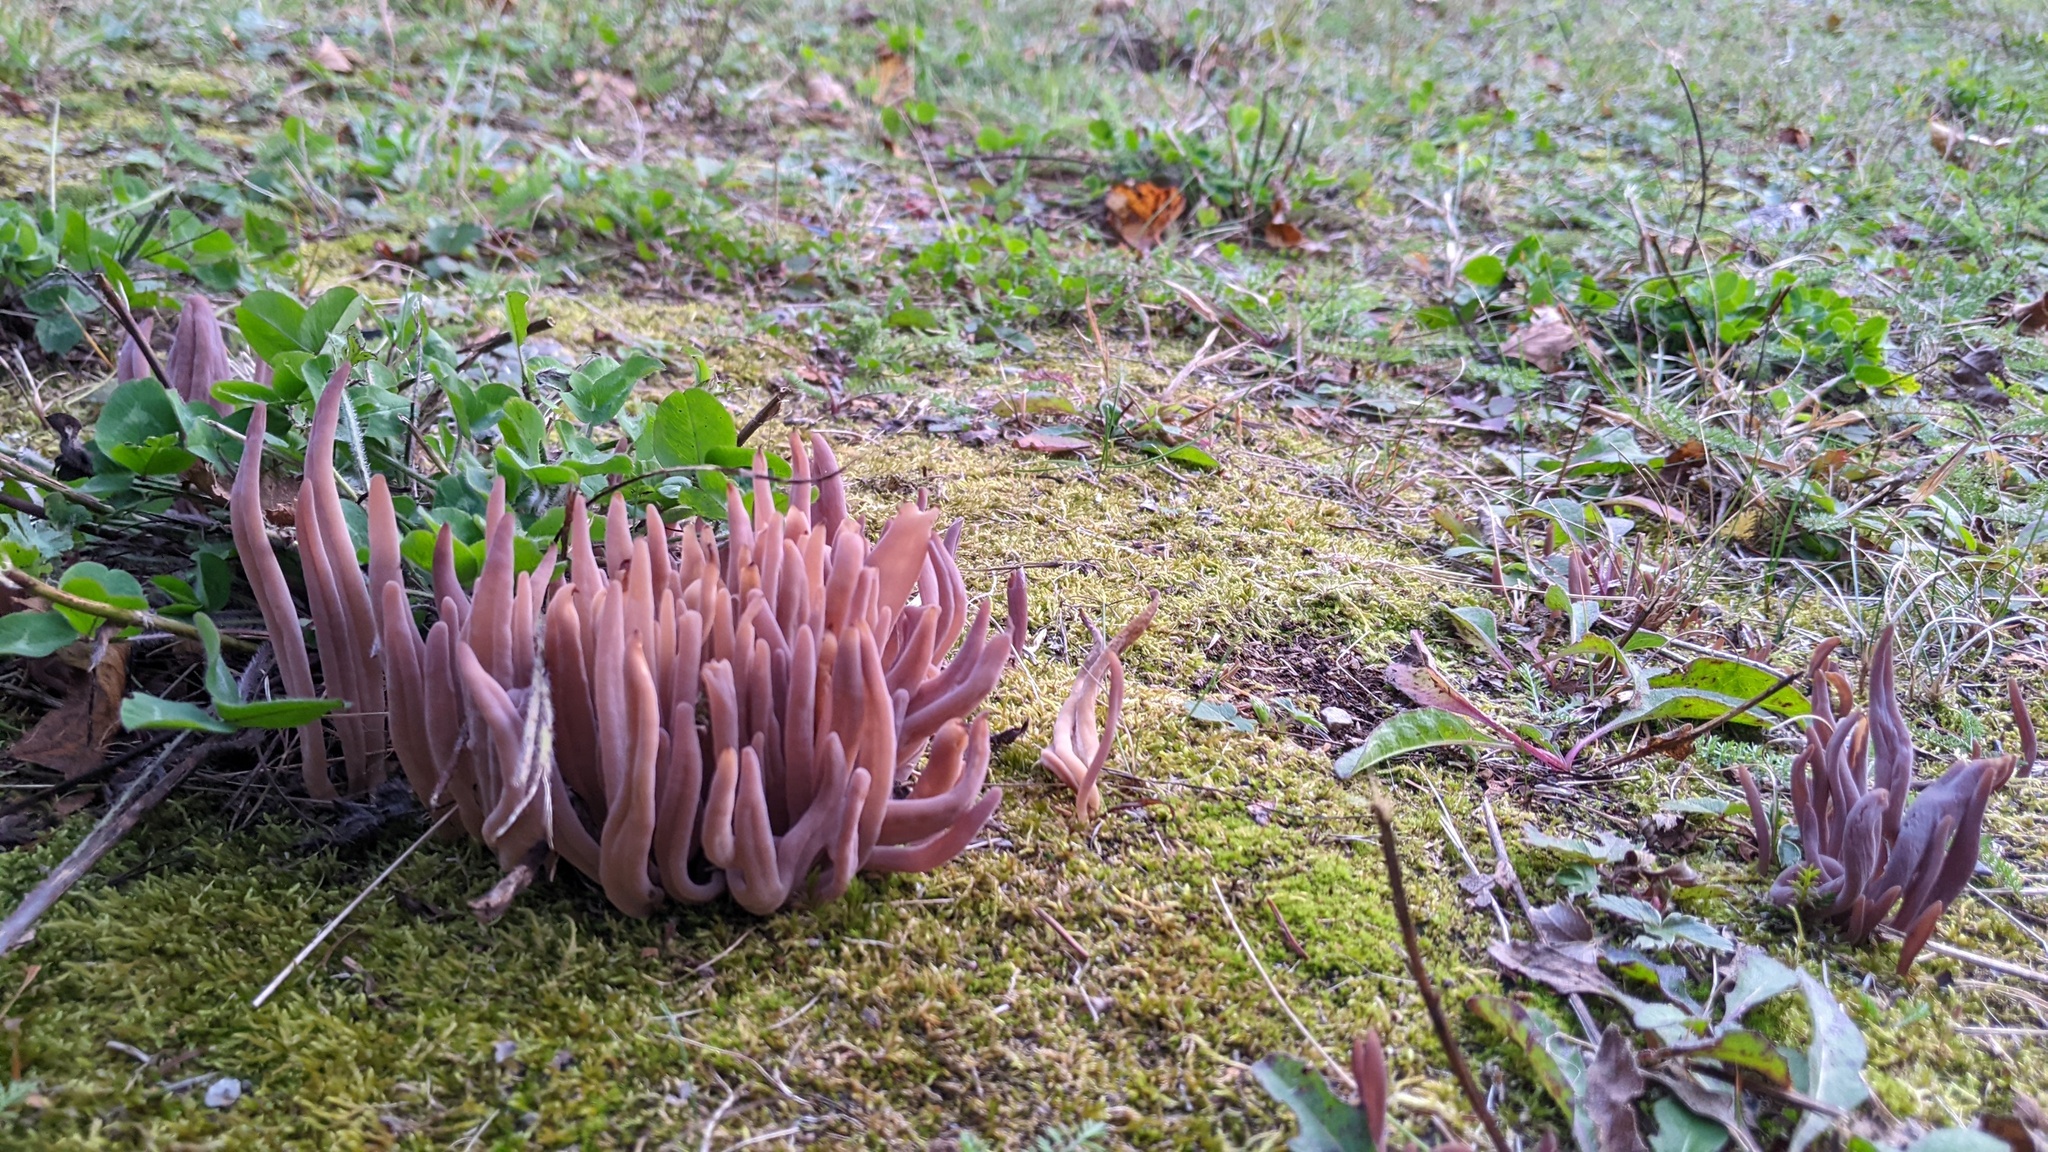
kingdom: Fungi
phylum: Basidiomycota
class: Agaricomycetes
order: Hymenochaetales
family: Rickenellaceae
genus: Alloclavaria
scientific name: Alloclavaria purpurea
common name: Purple spindles
